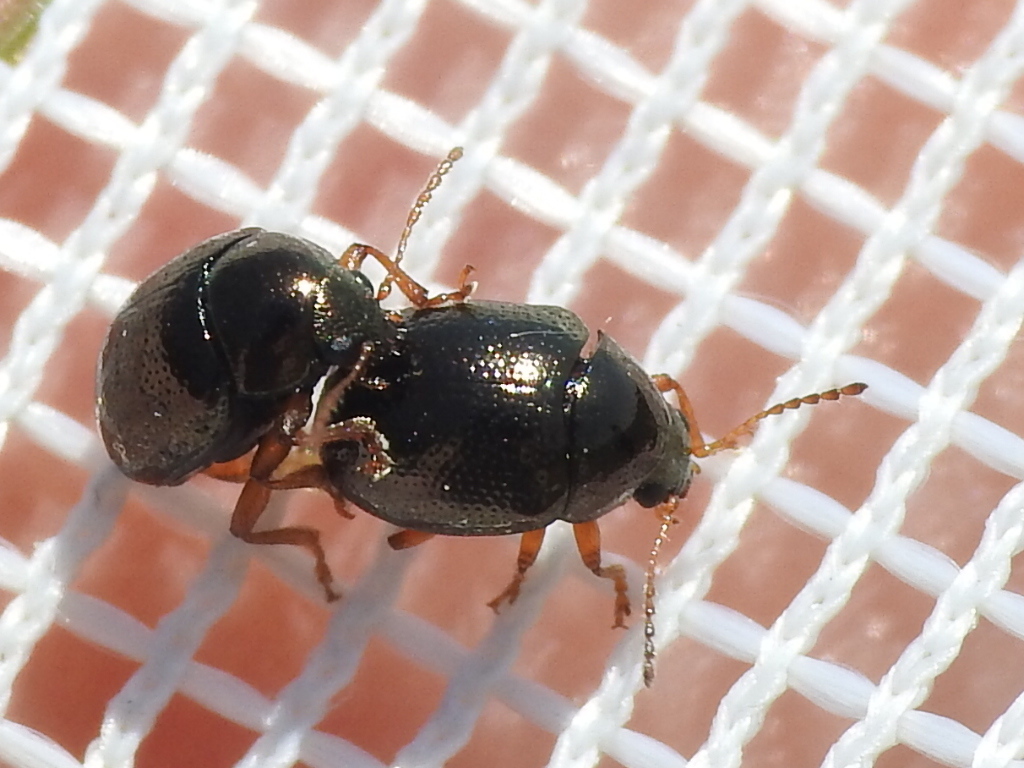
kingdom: Animalia
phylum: Arthropoda
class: Insecta
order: Coleoptera
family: Chrysomelidae
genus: Spintherophyta
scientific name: Spintherophyta globosa
